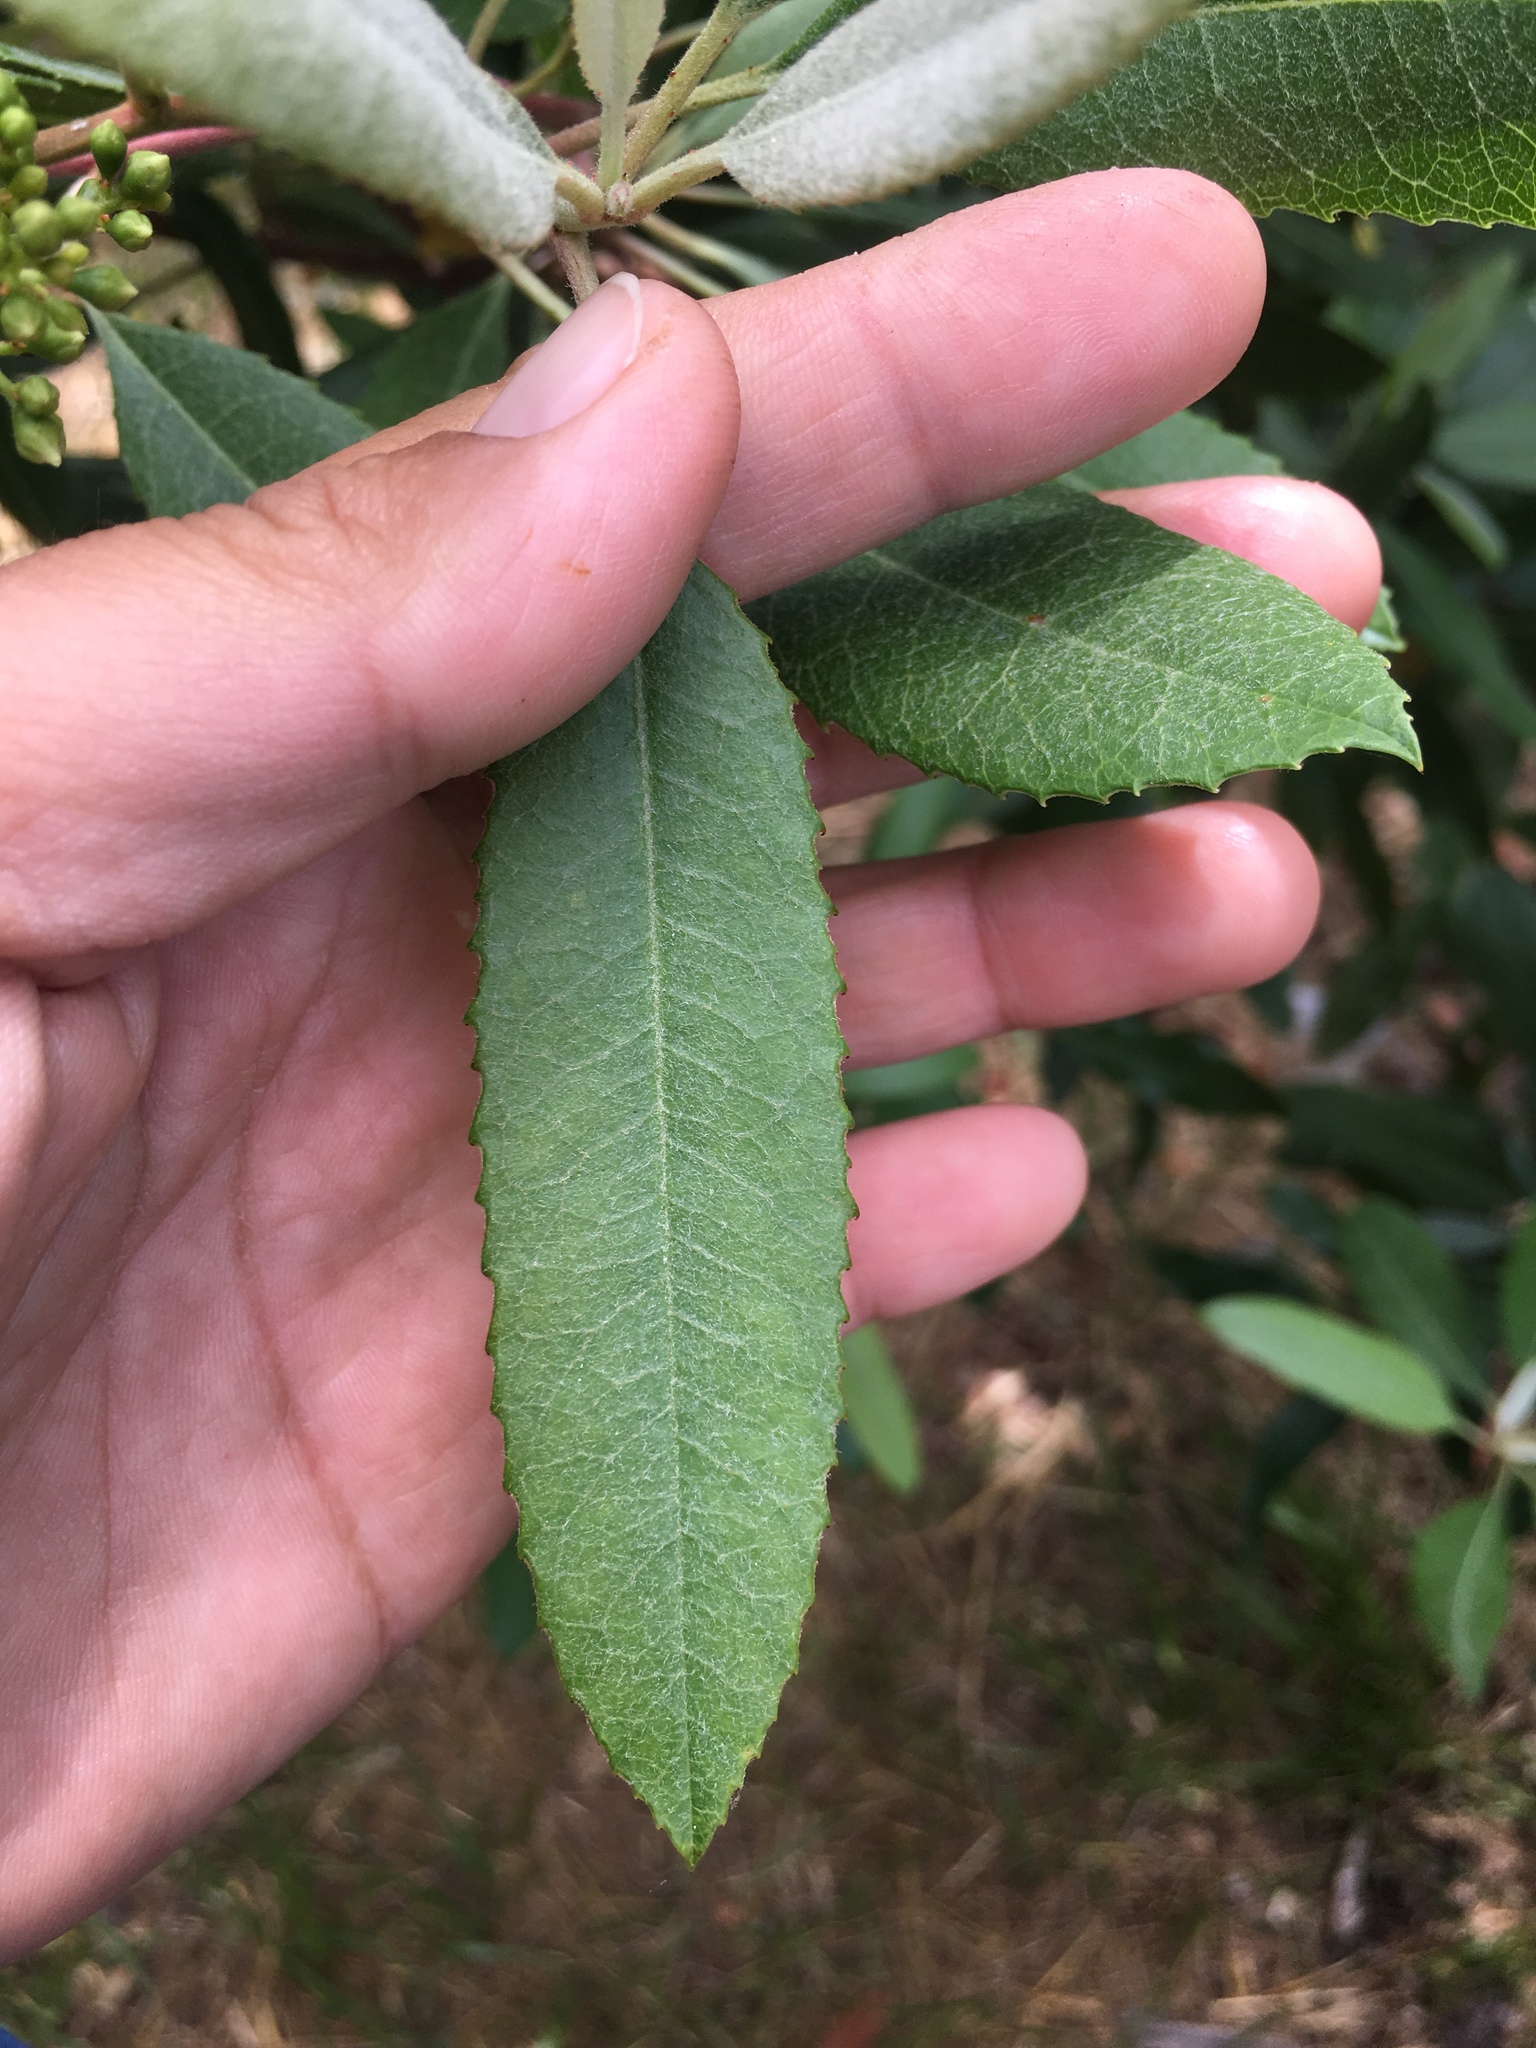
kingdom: Plantae
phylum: Tracheophyta
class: Magnoliopsida
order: Rosales
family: Rosaceae
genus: Heteromeles
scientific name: Heteromeles arbutifolia
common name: California-holly
